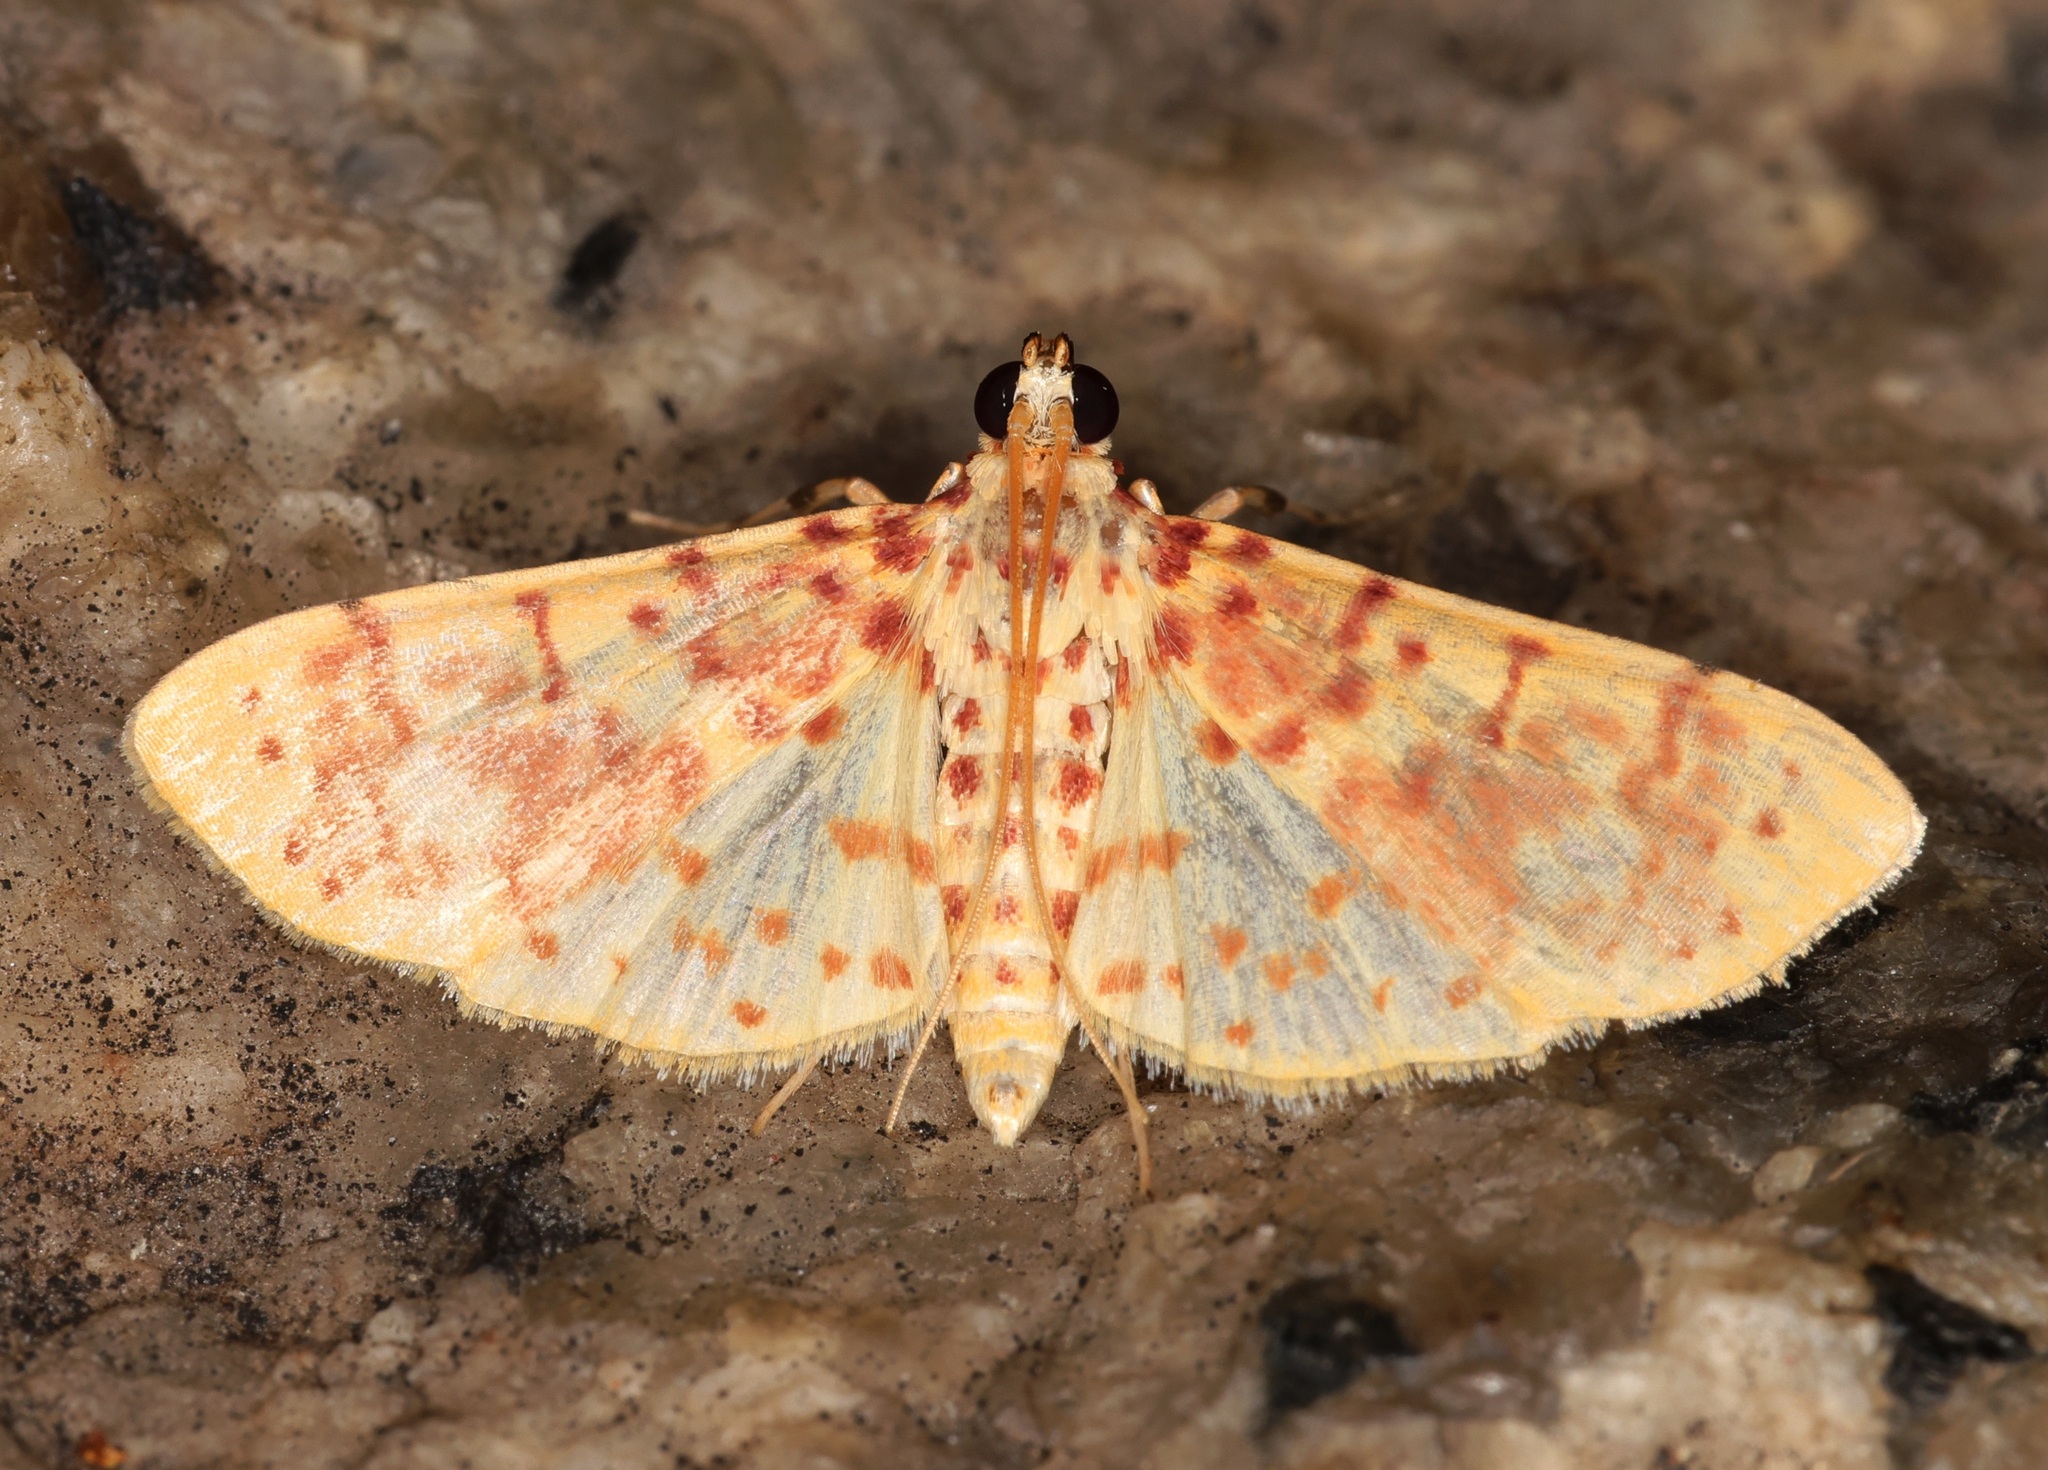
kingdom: Animalia
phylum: Arthropoda
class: Insecta
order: Lepidoptera
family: Crambidae
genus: Conogethes
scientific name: Conogethes haemactalis
